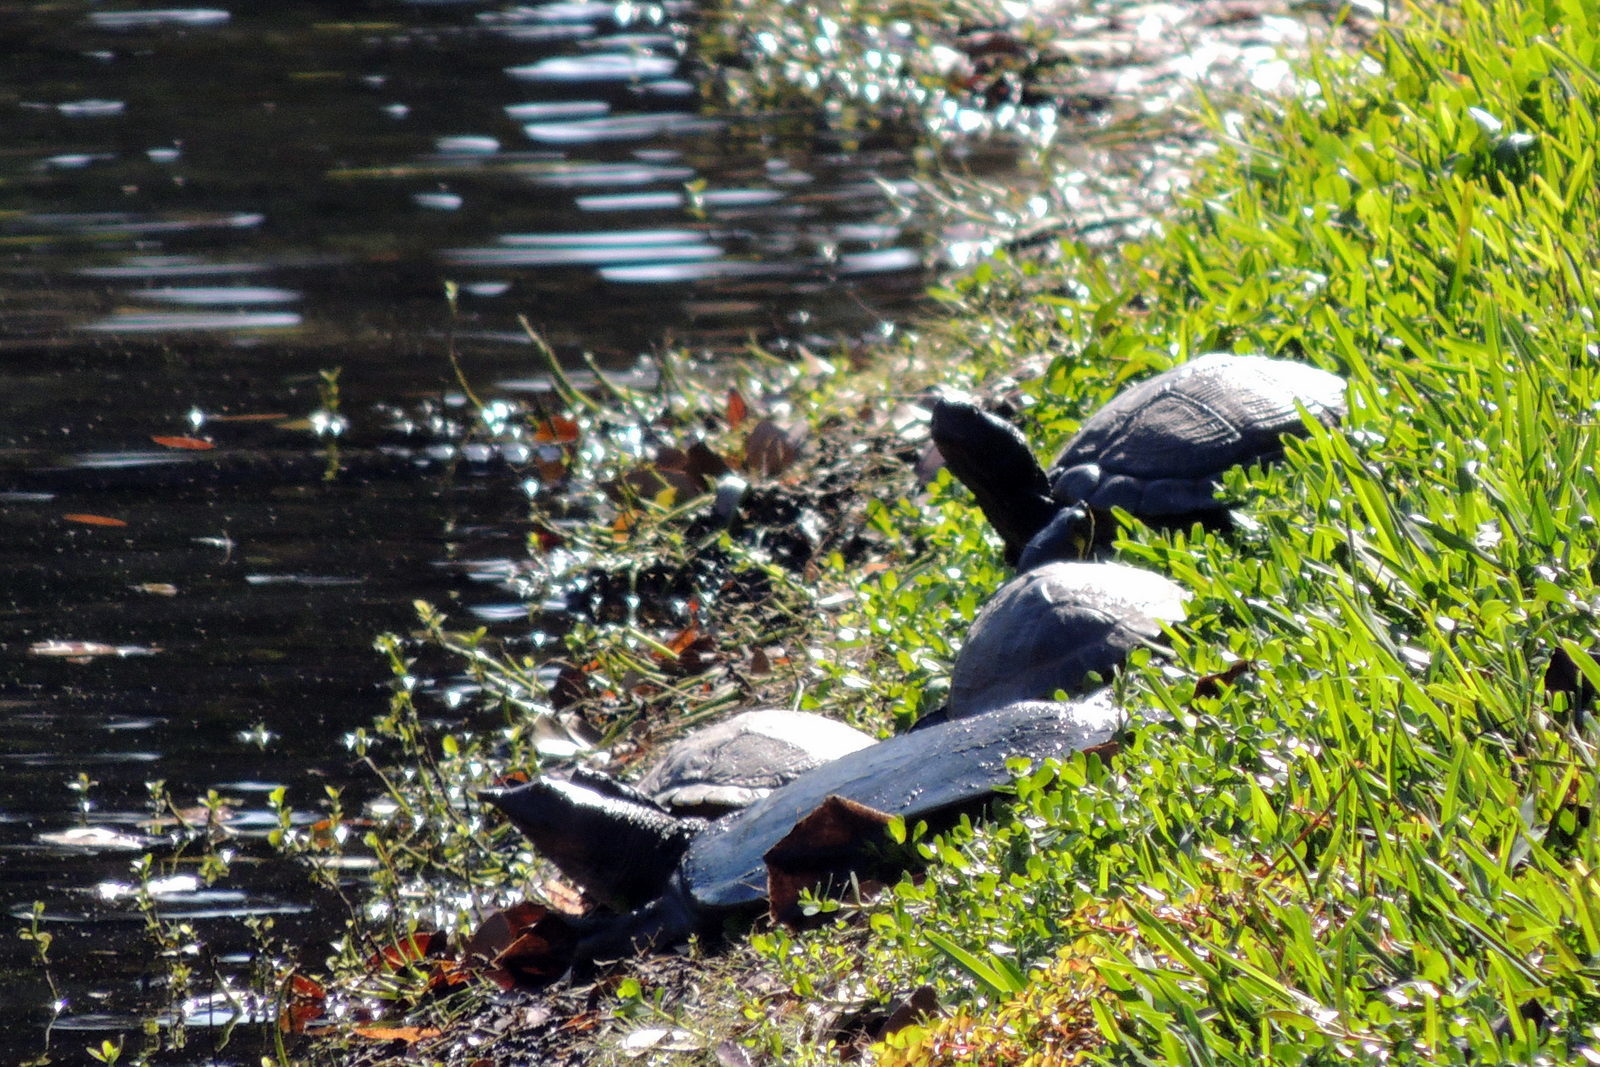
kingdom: Animalia
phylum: Chordata
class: Testudines
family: Trionychidae
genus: Apalone
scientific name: Apalone ferox
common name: Florida softshell turtle
